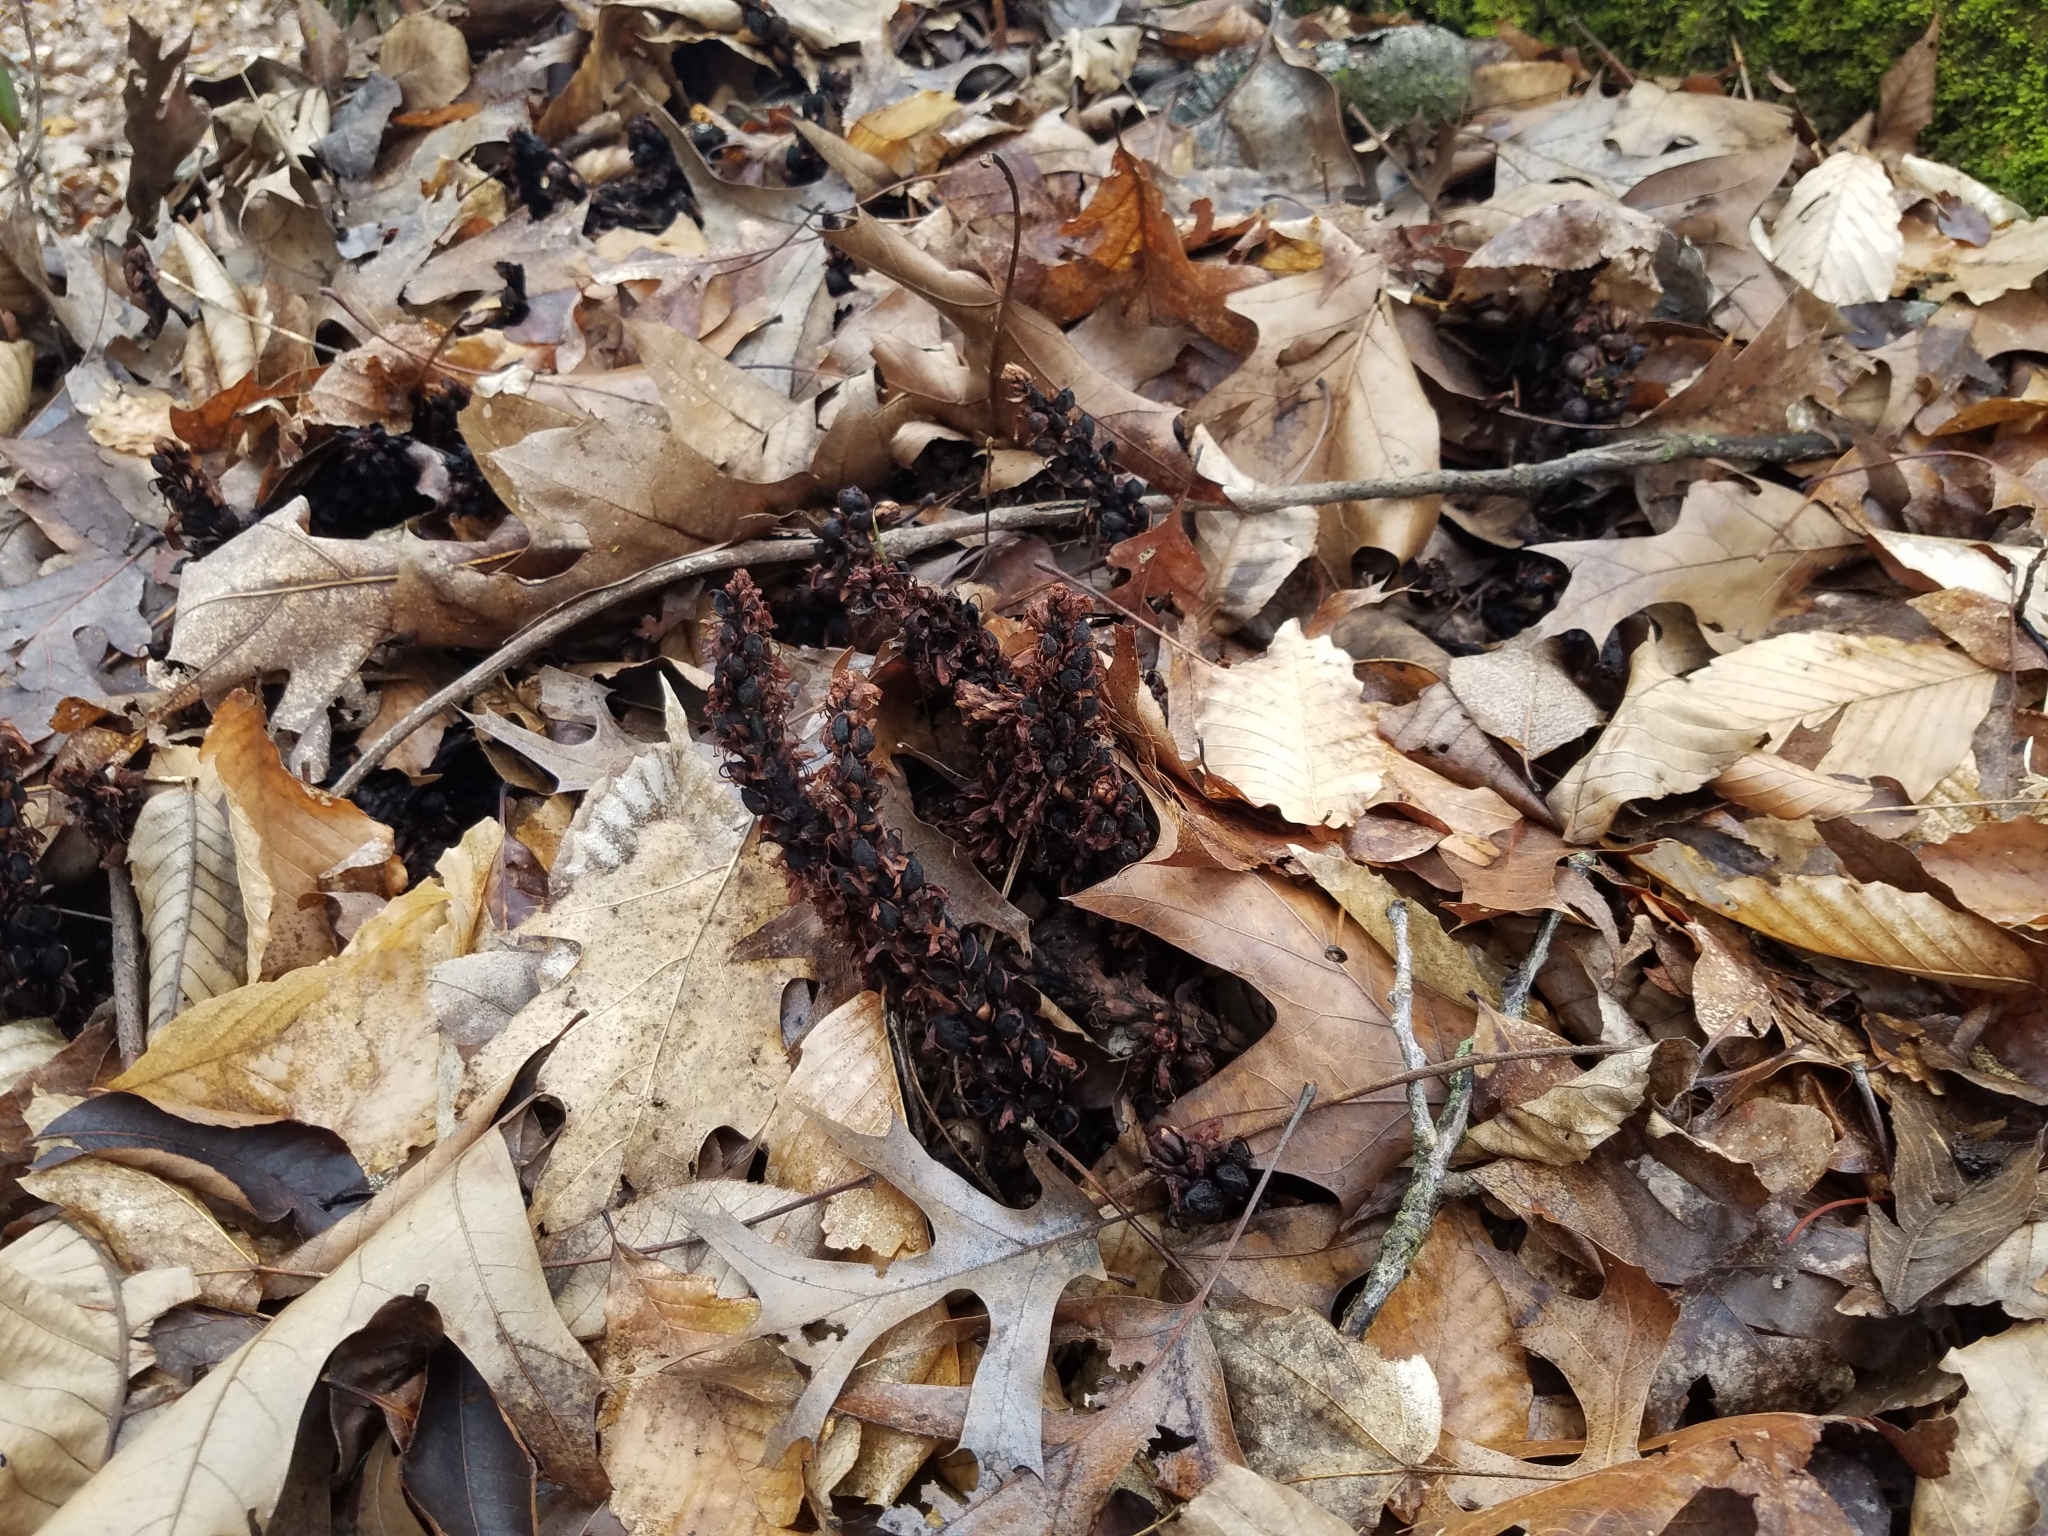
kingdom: Plantae
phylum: Tracheophyta
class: Magnoliopsida
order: Lamiales
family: Orobanchaceae
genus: Conopholis
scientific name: Conopholis americana
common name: American cancer-root
